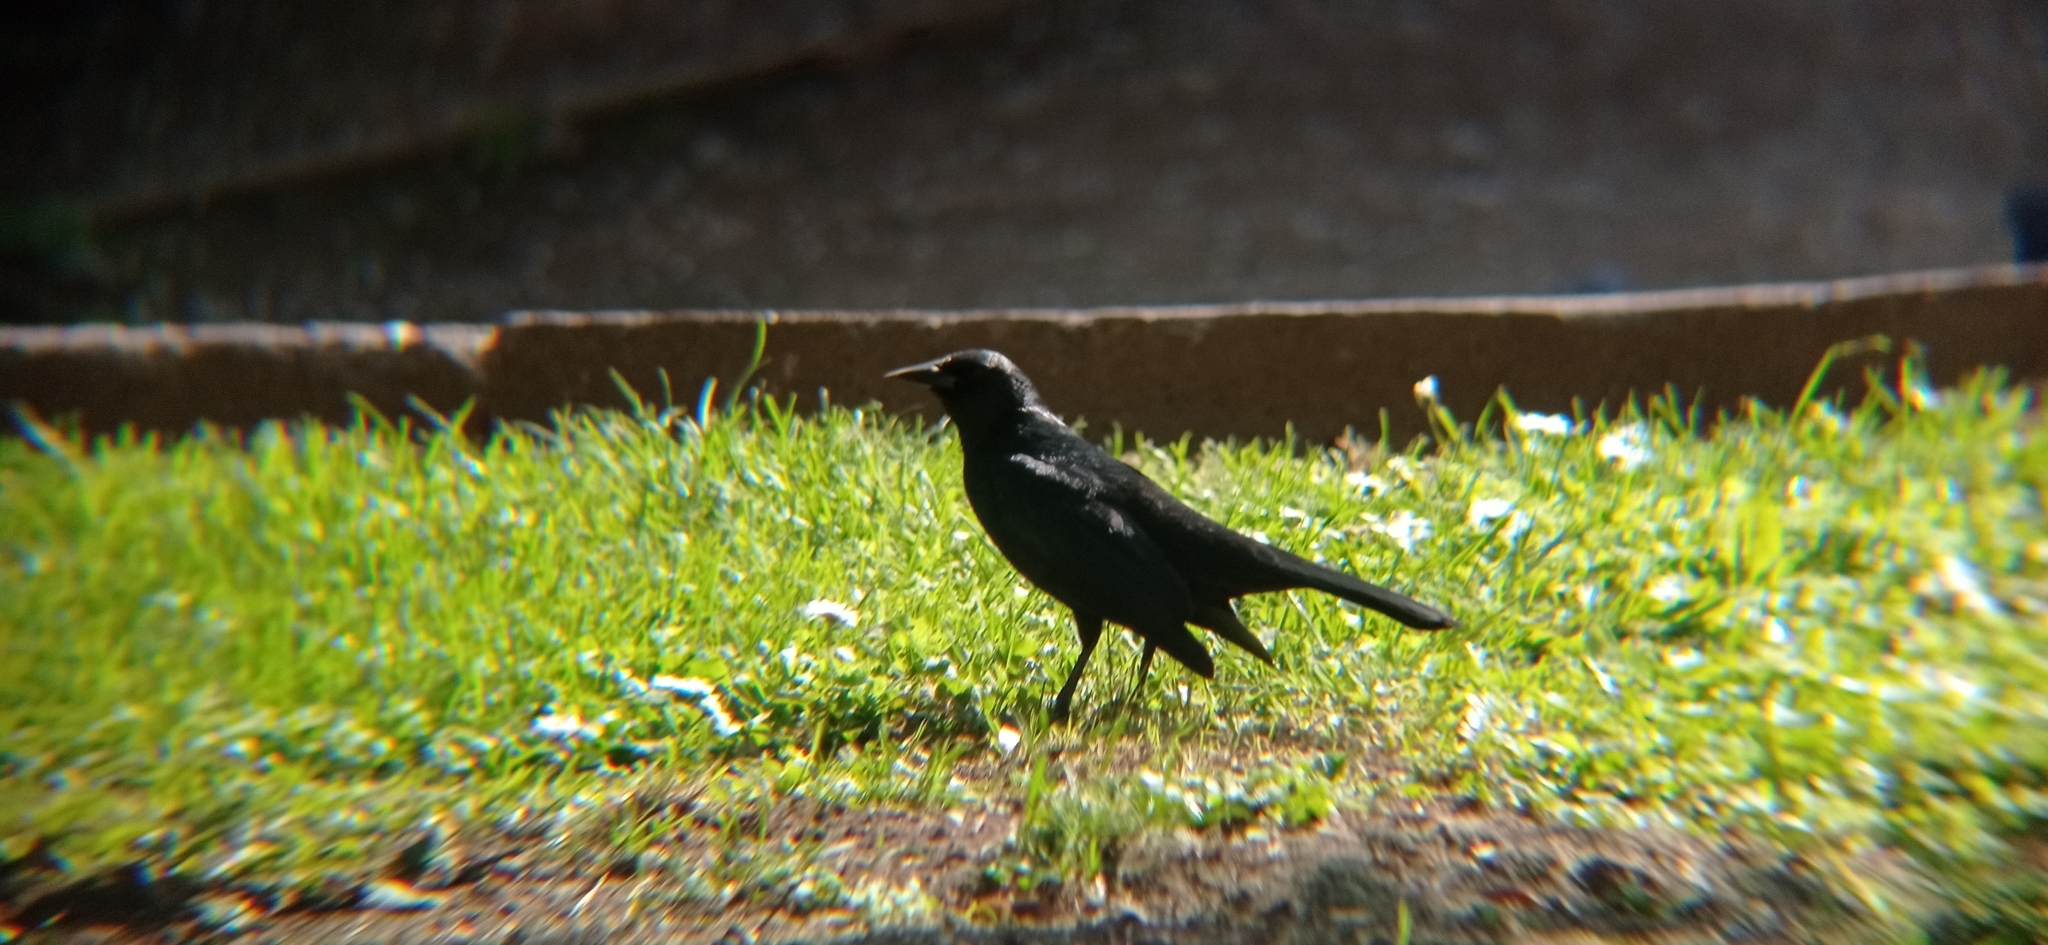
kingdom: Animalia
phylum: Chordata
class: Aves
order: Passeriformes
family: Icteridae
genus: Curaeus
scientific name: Curaeus curaeus
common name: Austral blackbird
